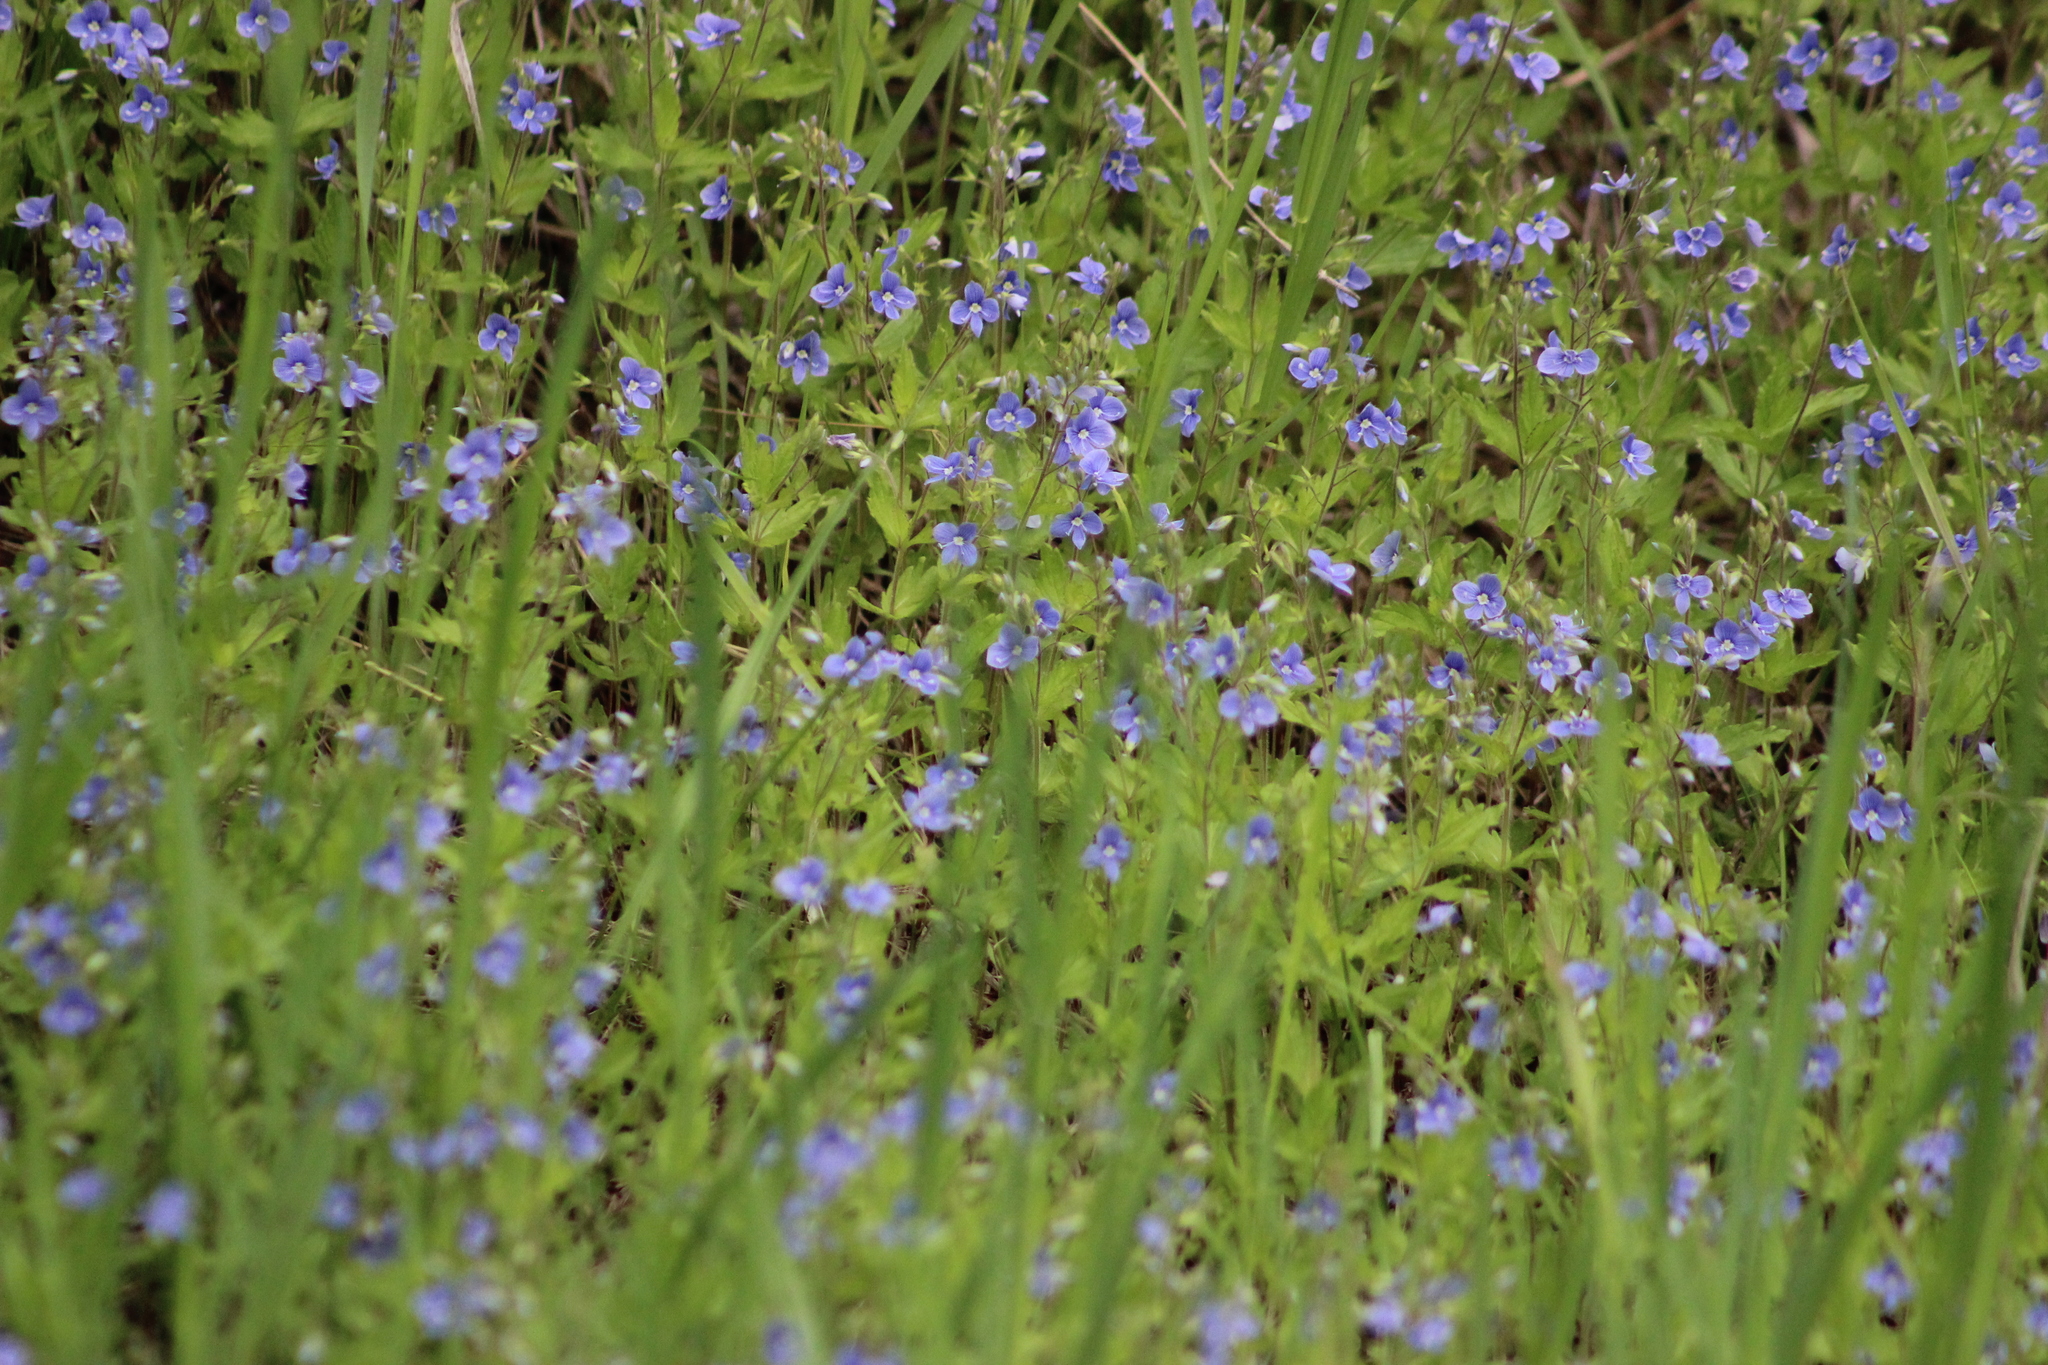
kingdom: Plantae
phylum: Tracheophyta
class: Magnoliopsida
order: Lamiales
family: Plantaginaceae
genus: Veronica
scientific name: Veronica chamaedrys
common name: Germander speedwell
